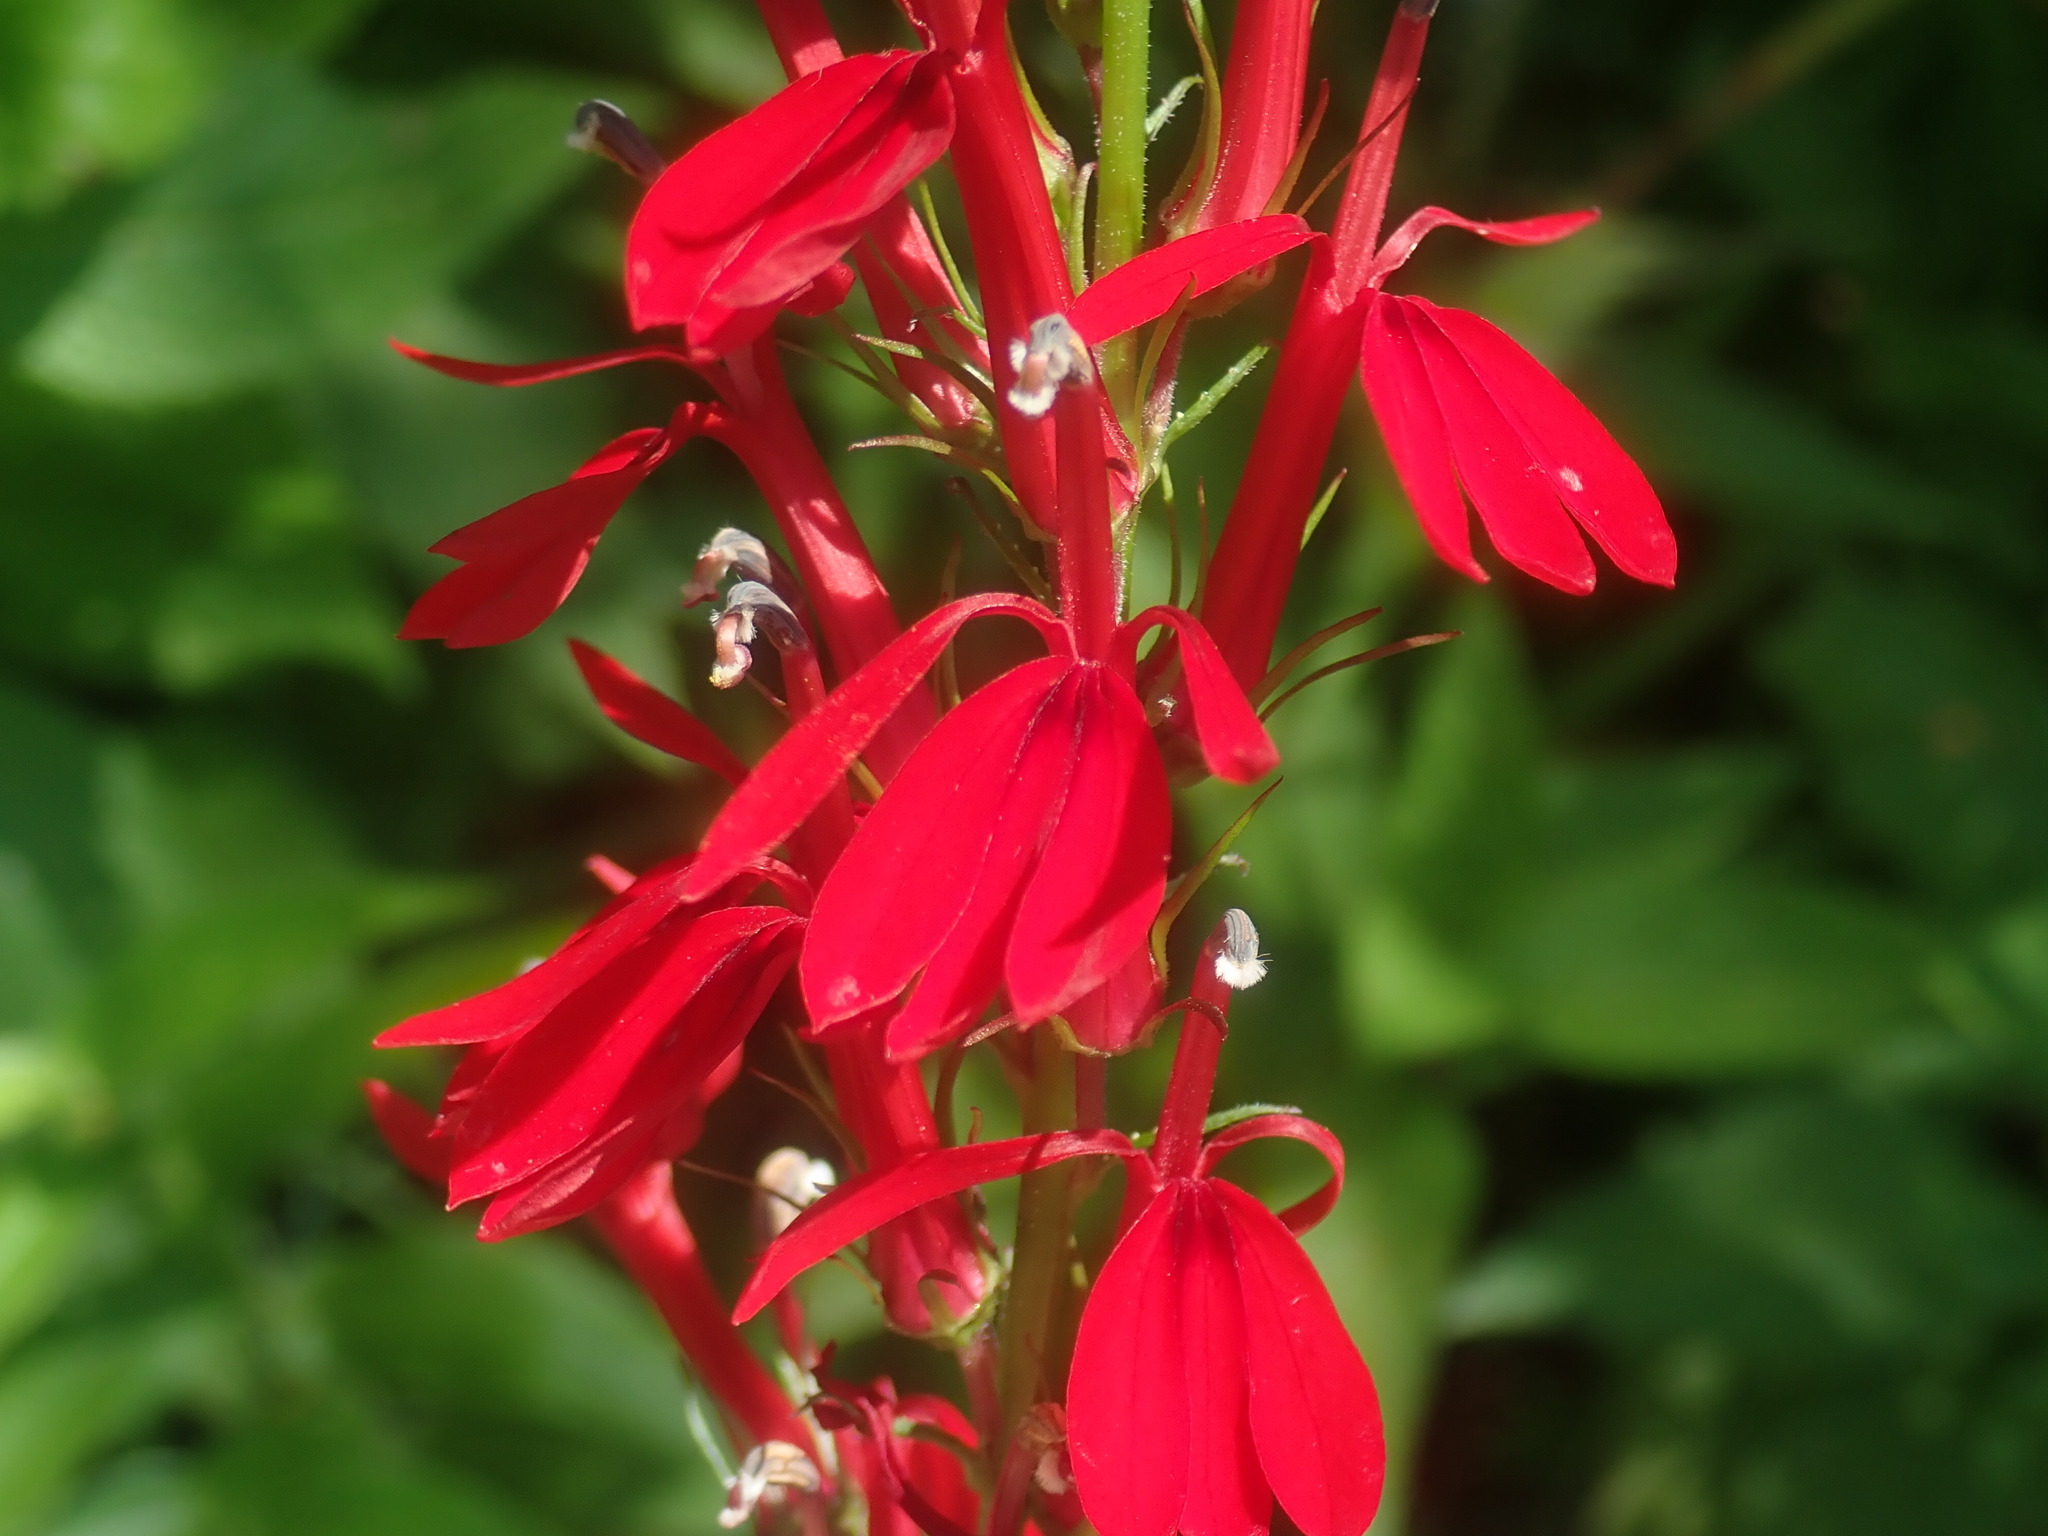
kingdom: Plantae
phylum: Tracheophyta
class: Magnoliopsida
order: Asterales
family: Campanulaceae
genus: Lobelia
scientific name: Lobelia cardinalis
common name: Cardinal flower
